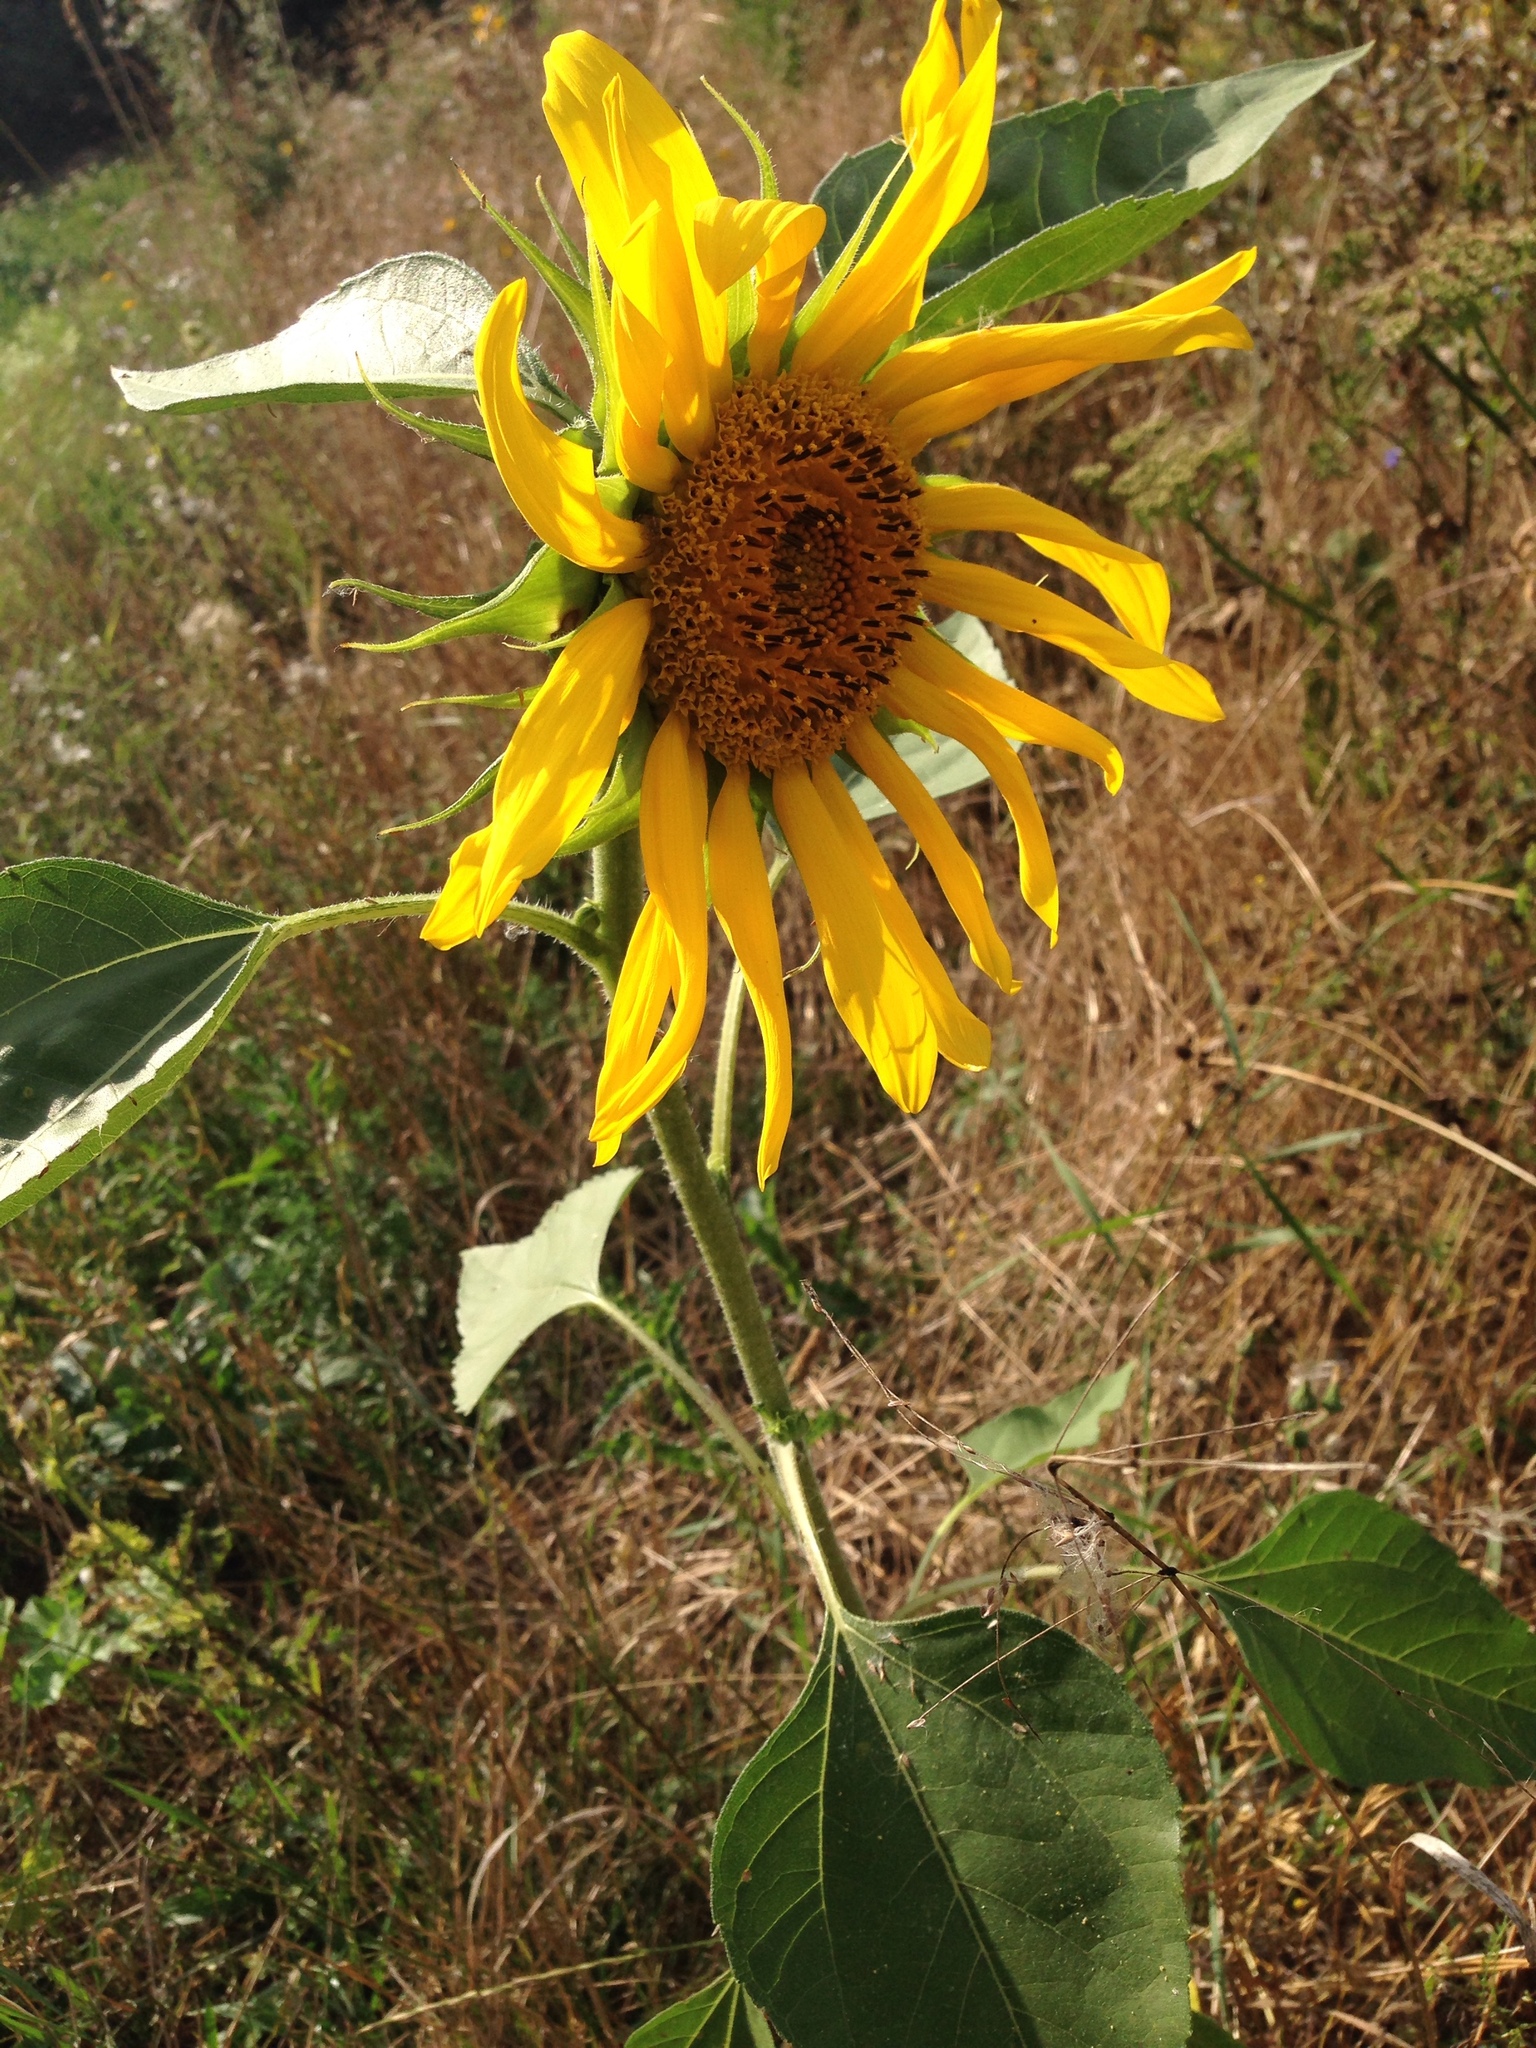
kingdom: Plantae
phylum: Tracheophyta
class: Magnoliopsida
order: Asterales
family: Asteraceae
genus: Helianthus
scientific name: Helianthus annuus
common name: Sunflower
